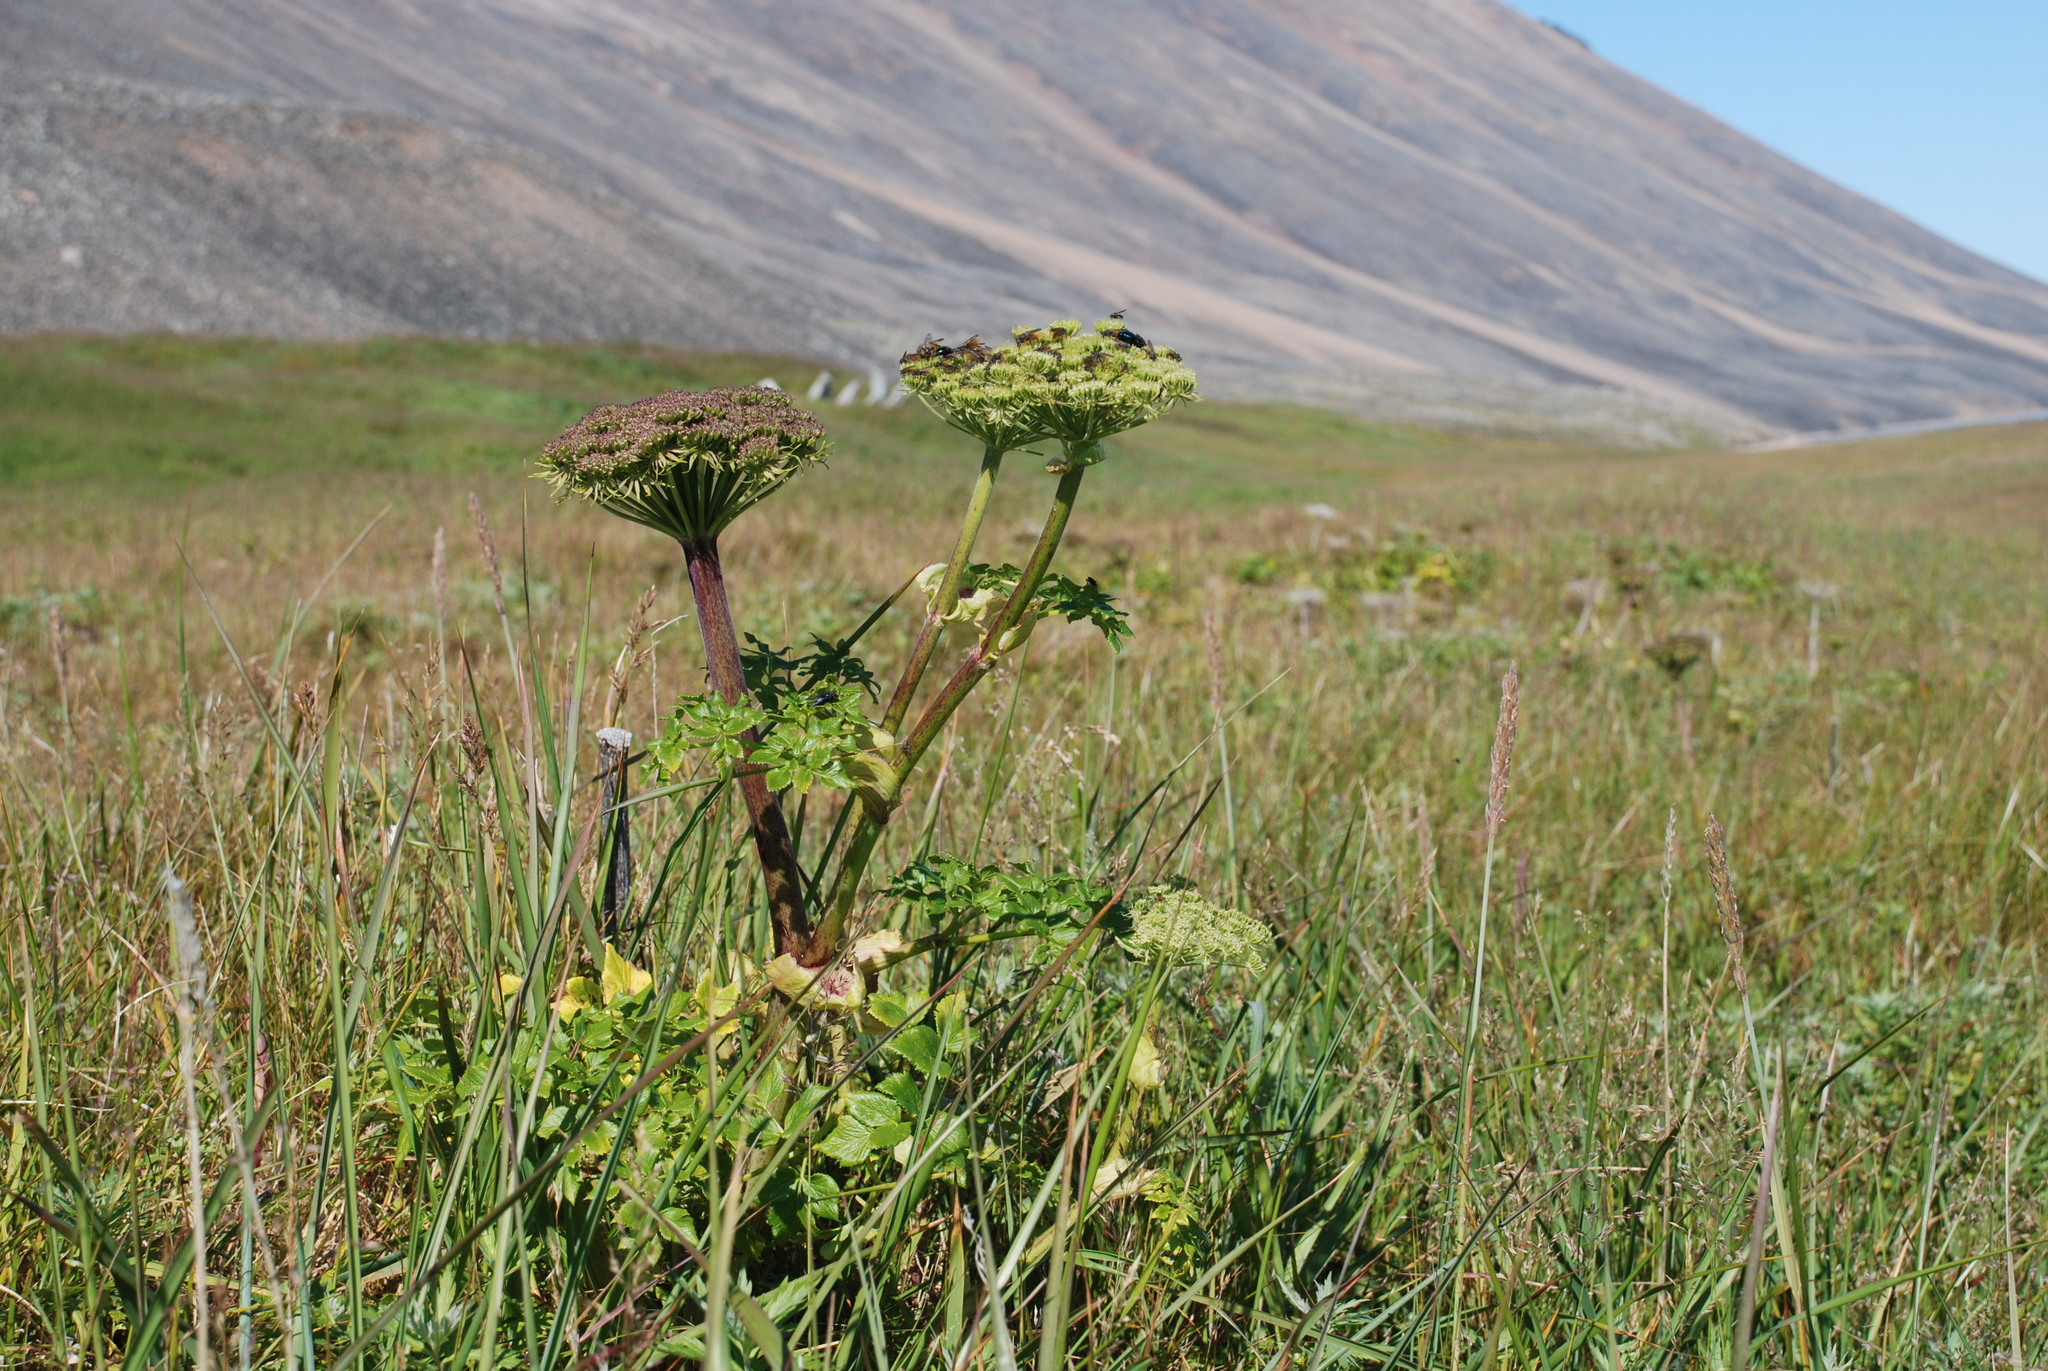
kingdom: Plantae
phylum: Tracheophyta
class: Magnoliopsida
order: Apiales
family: Apiaceae
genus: Angelica
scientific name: Angelica gmelinii
